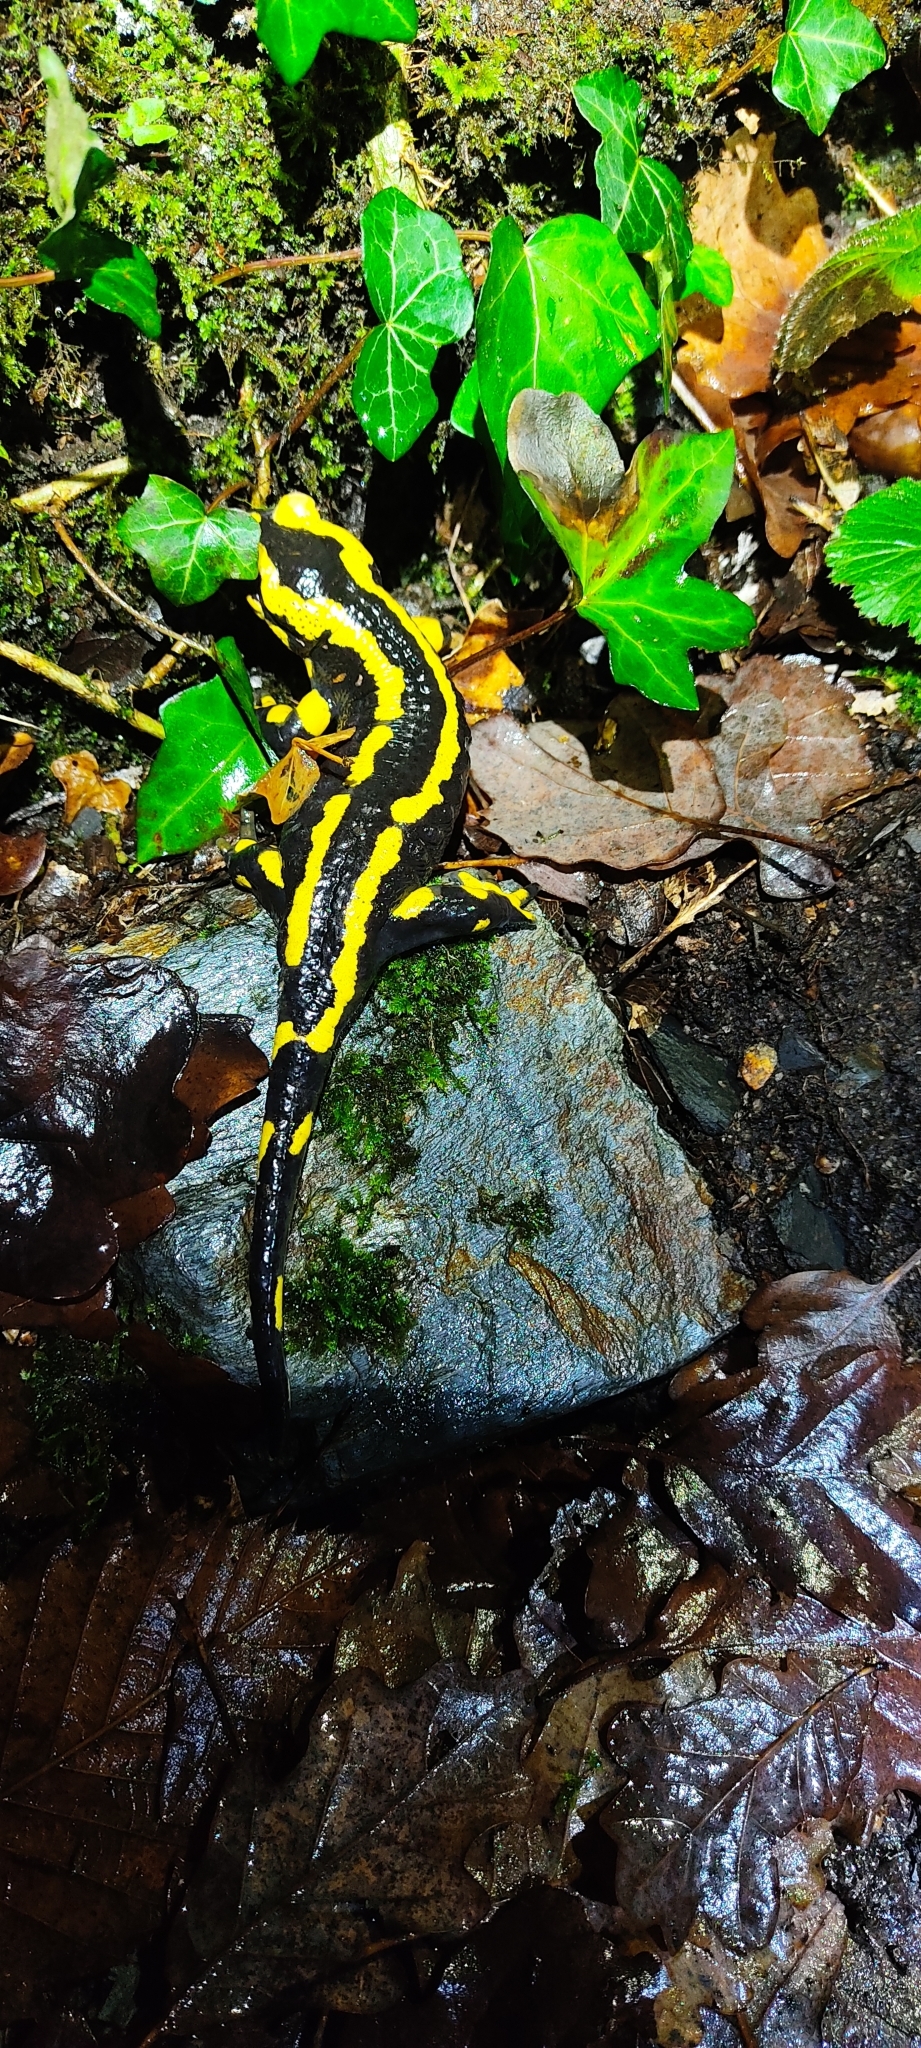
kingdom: Animalia
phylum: Chordata
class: Amphibia
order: Caudata
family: Salamandridae
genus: Salamandra
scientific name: Salamandra salamandra
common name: Fire salamander
